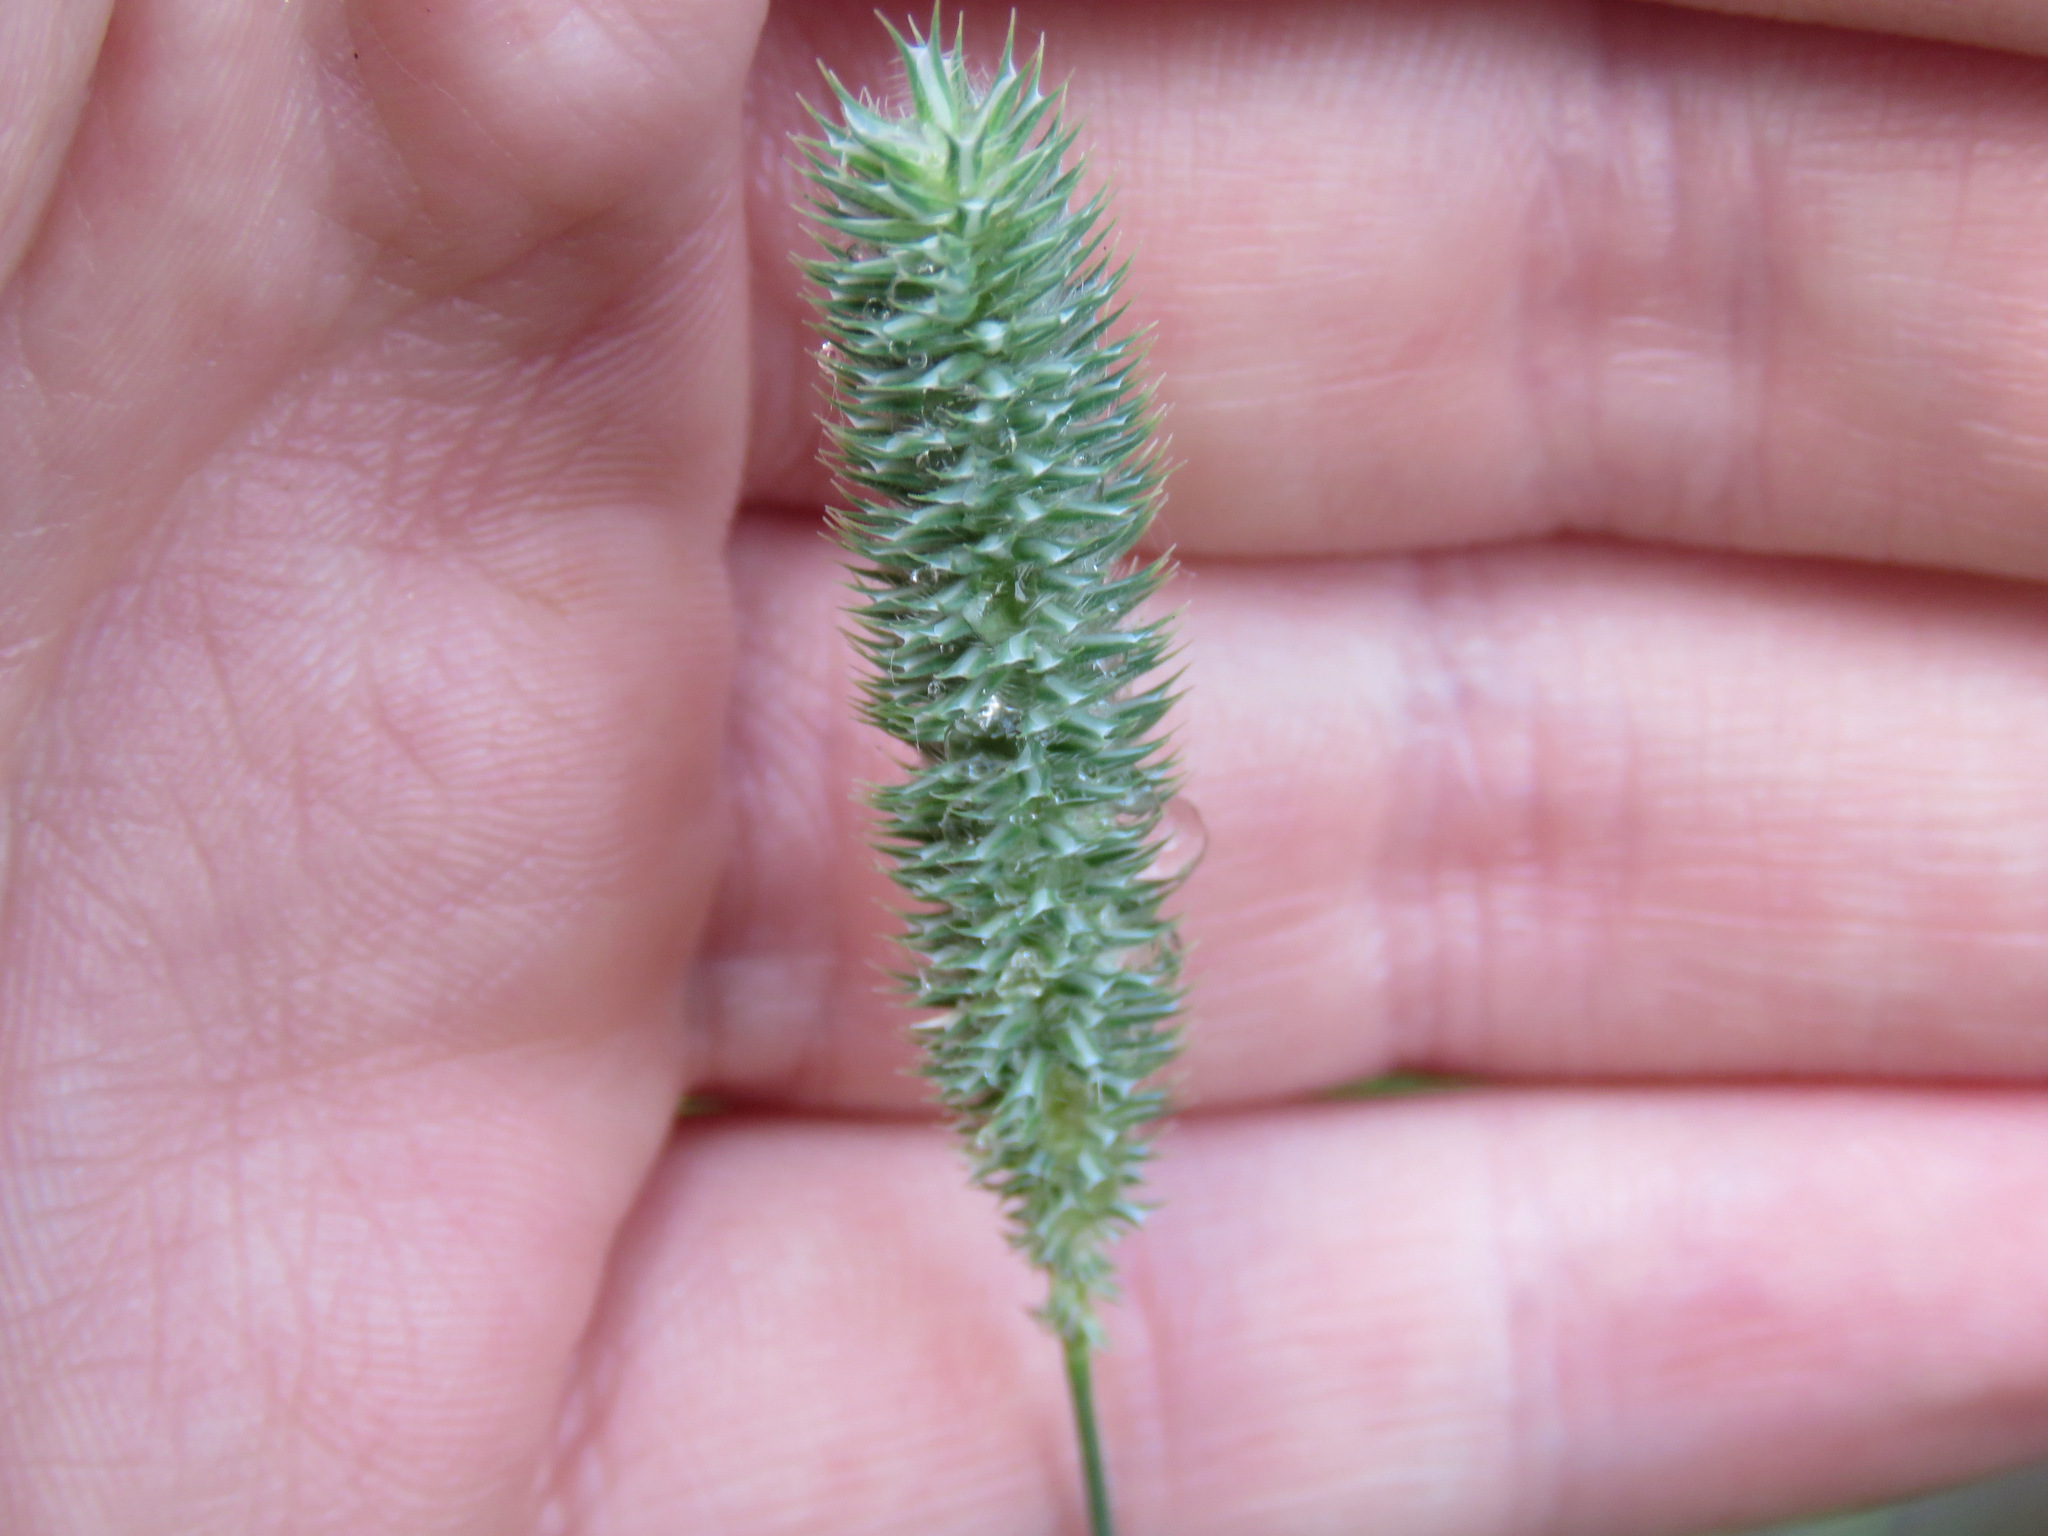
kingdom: Plantae
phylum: Tracheophyta
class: Liliopsida
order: Poales
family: Poaceae
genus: Phleum
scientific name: Phleum pratense
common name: Timothy grass
